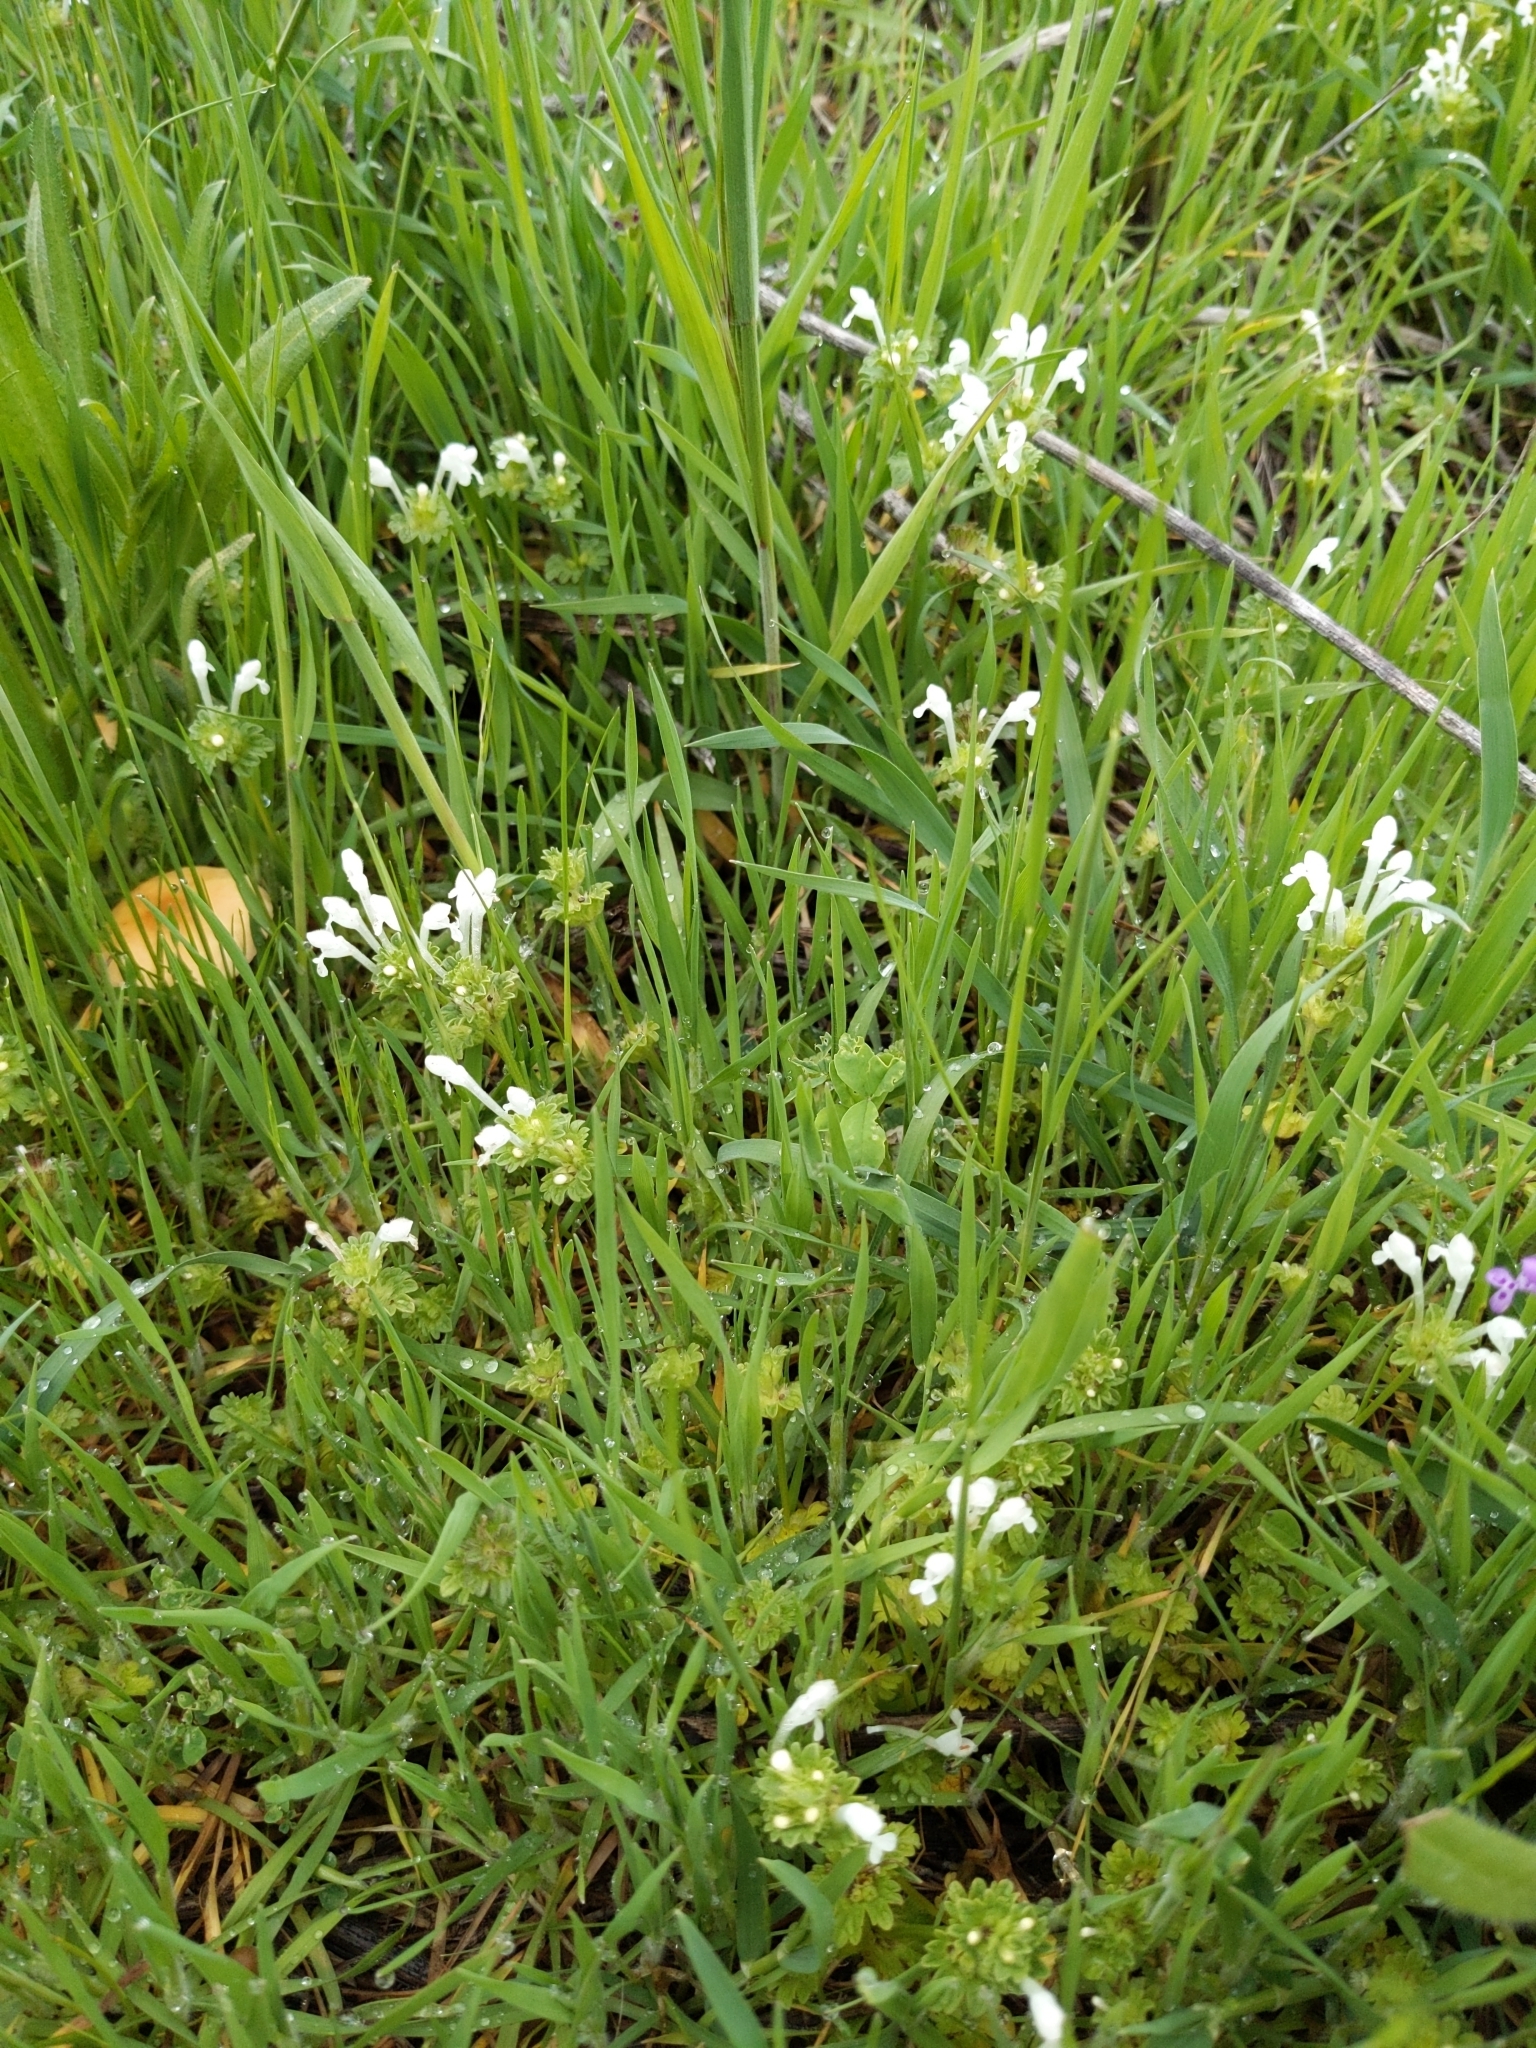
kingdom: Plantae
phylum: Tracheophyta
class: Magnoliopsida
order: Lamiales
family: Lamiaceae
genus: Lamium
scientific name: Lamium amplexicaule
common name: Henbit dead-nettle
